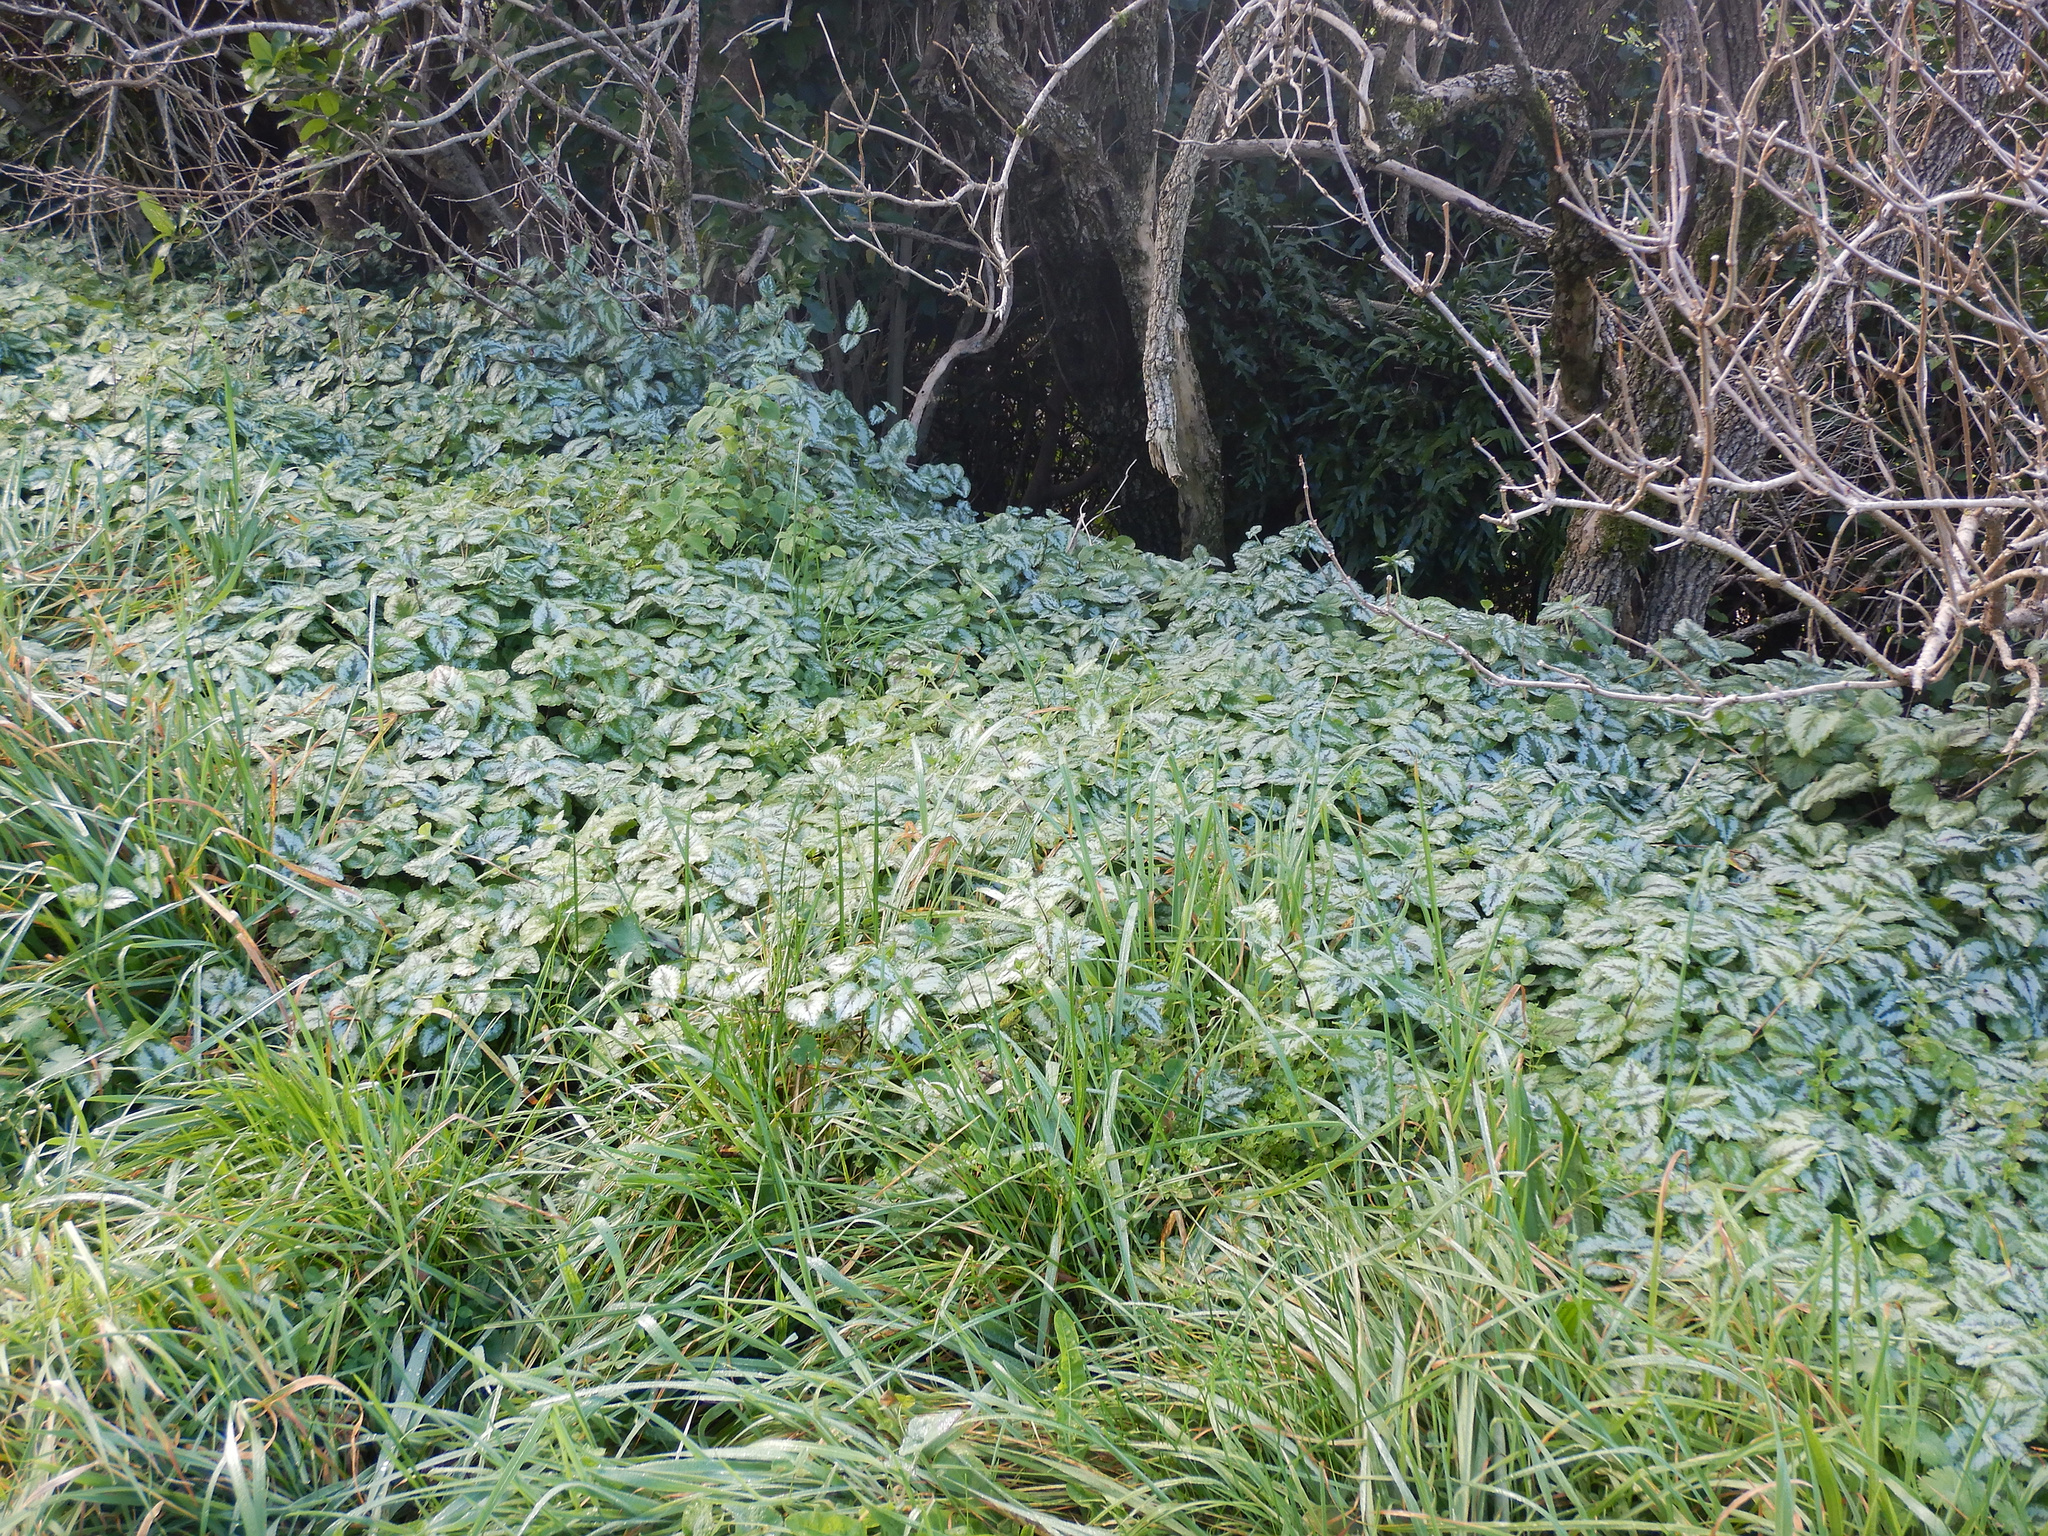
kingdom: Plantae
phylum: Tracheophyta
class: Magnoliopsida
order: Lamiales
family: Lamiaceae
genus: Lamium
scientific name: Lamium galeobdolon
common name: Yellow archangel
